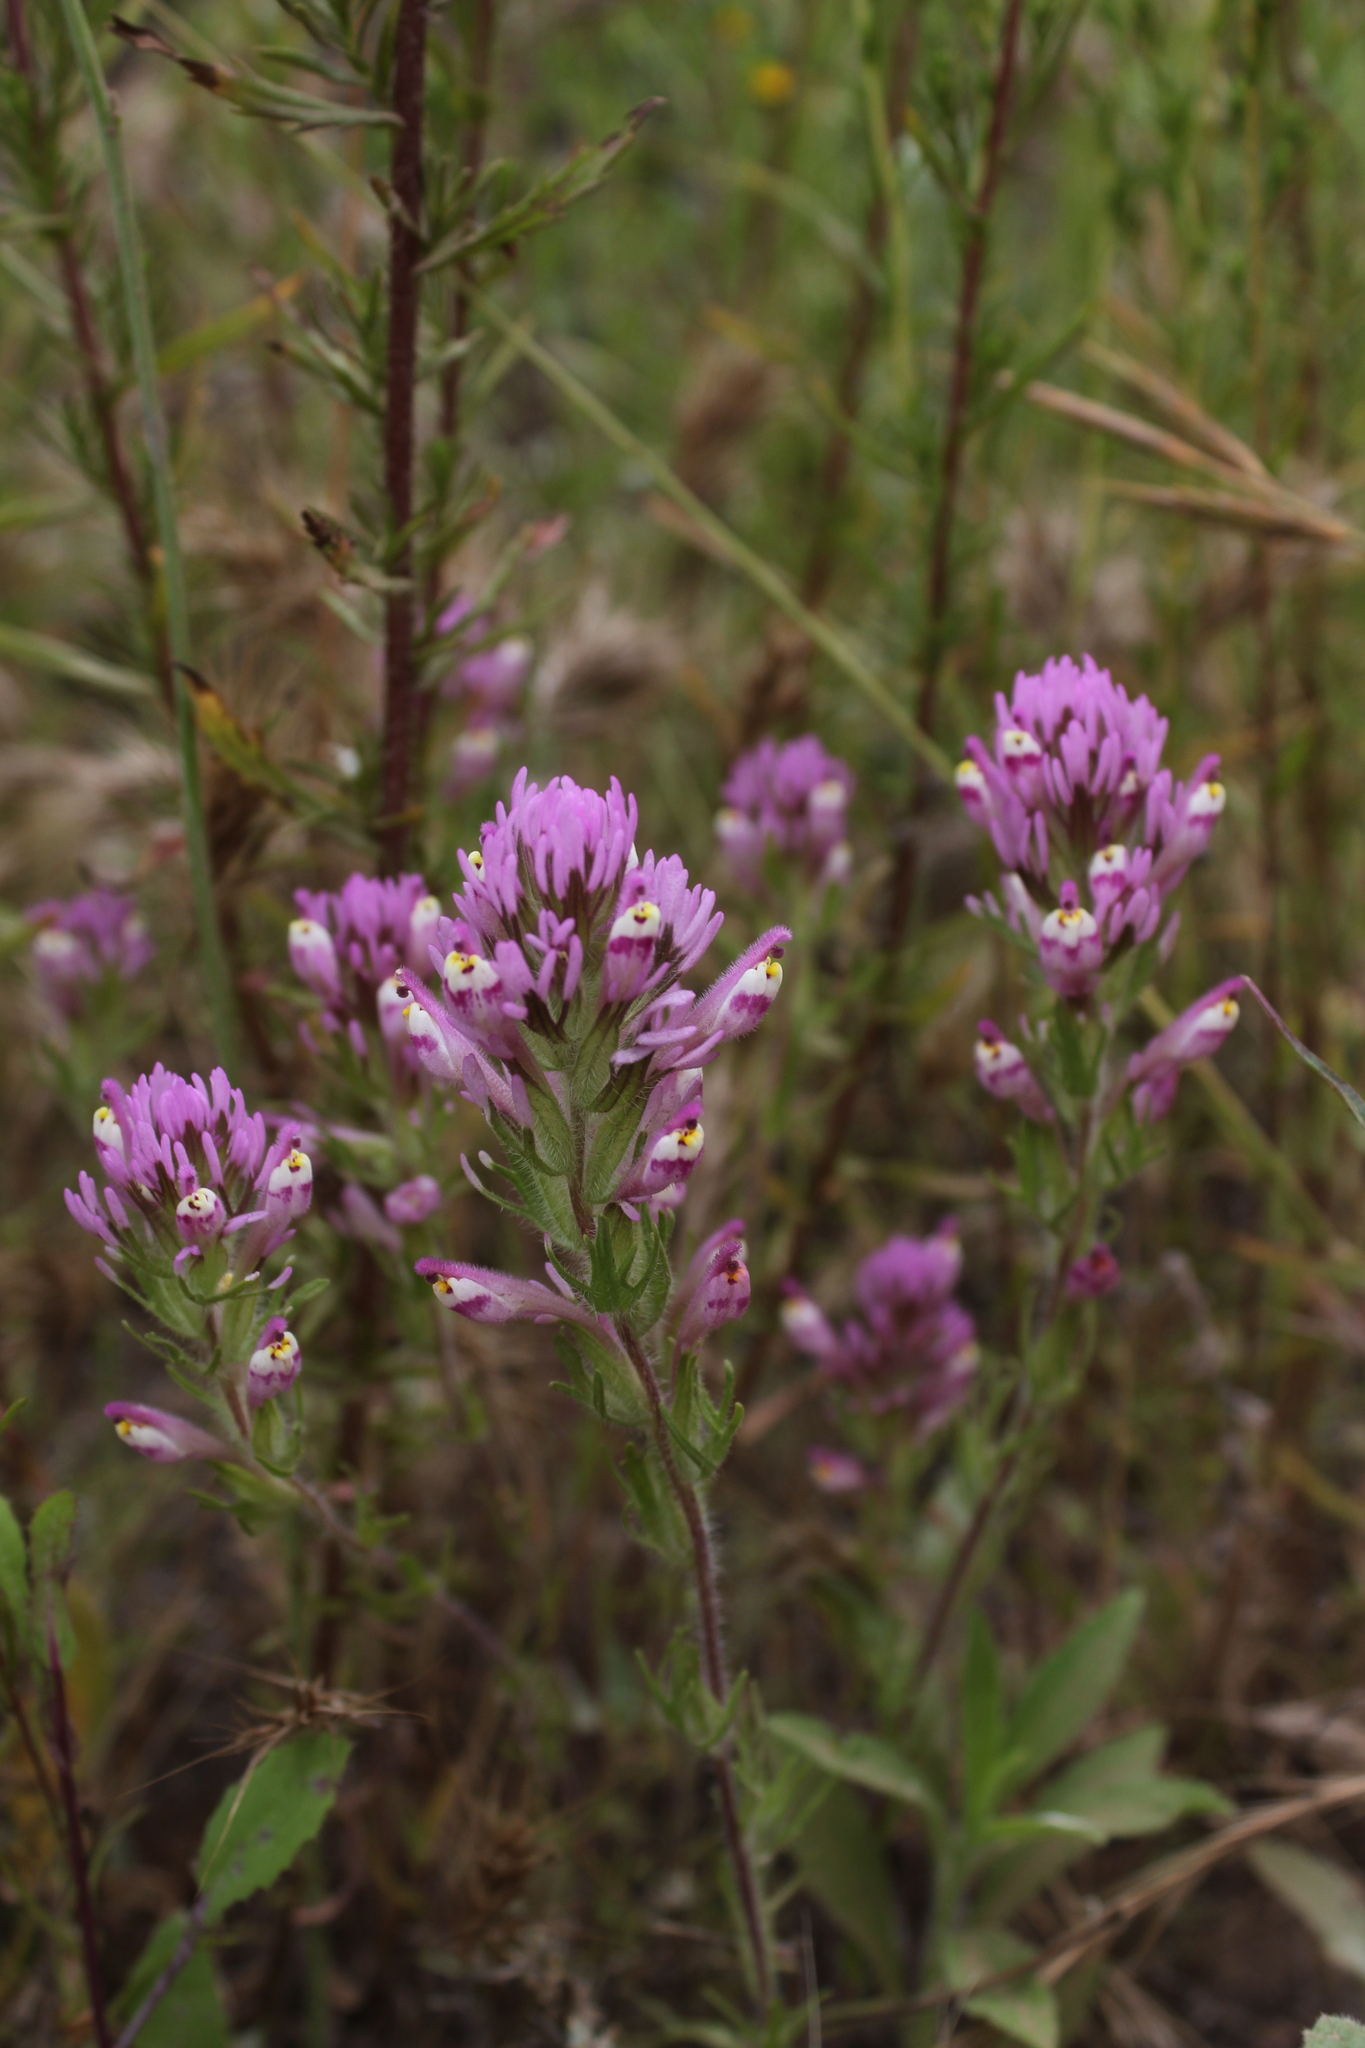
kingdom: Plantae
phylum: Tracheophyta
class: Magnoliopsida
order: Lamiales
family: Orobanchaceae
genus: Castilleja
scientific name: Castilleja exserta
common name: Purple owl-clover
